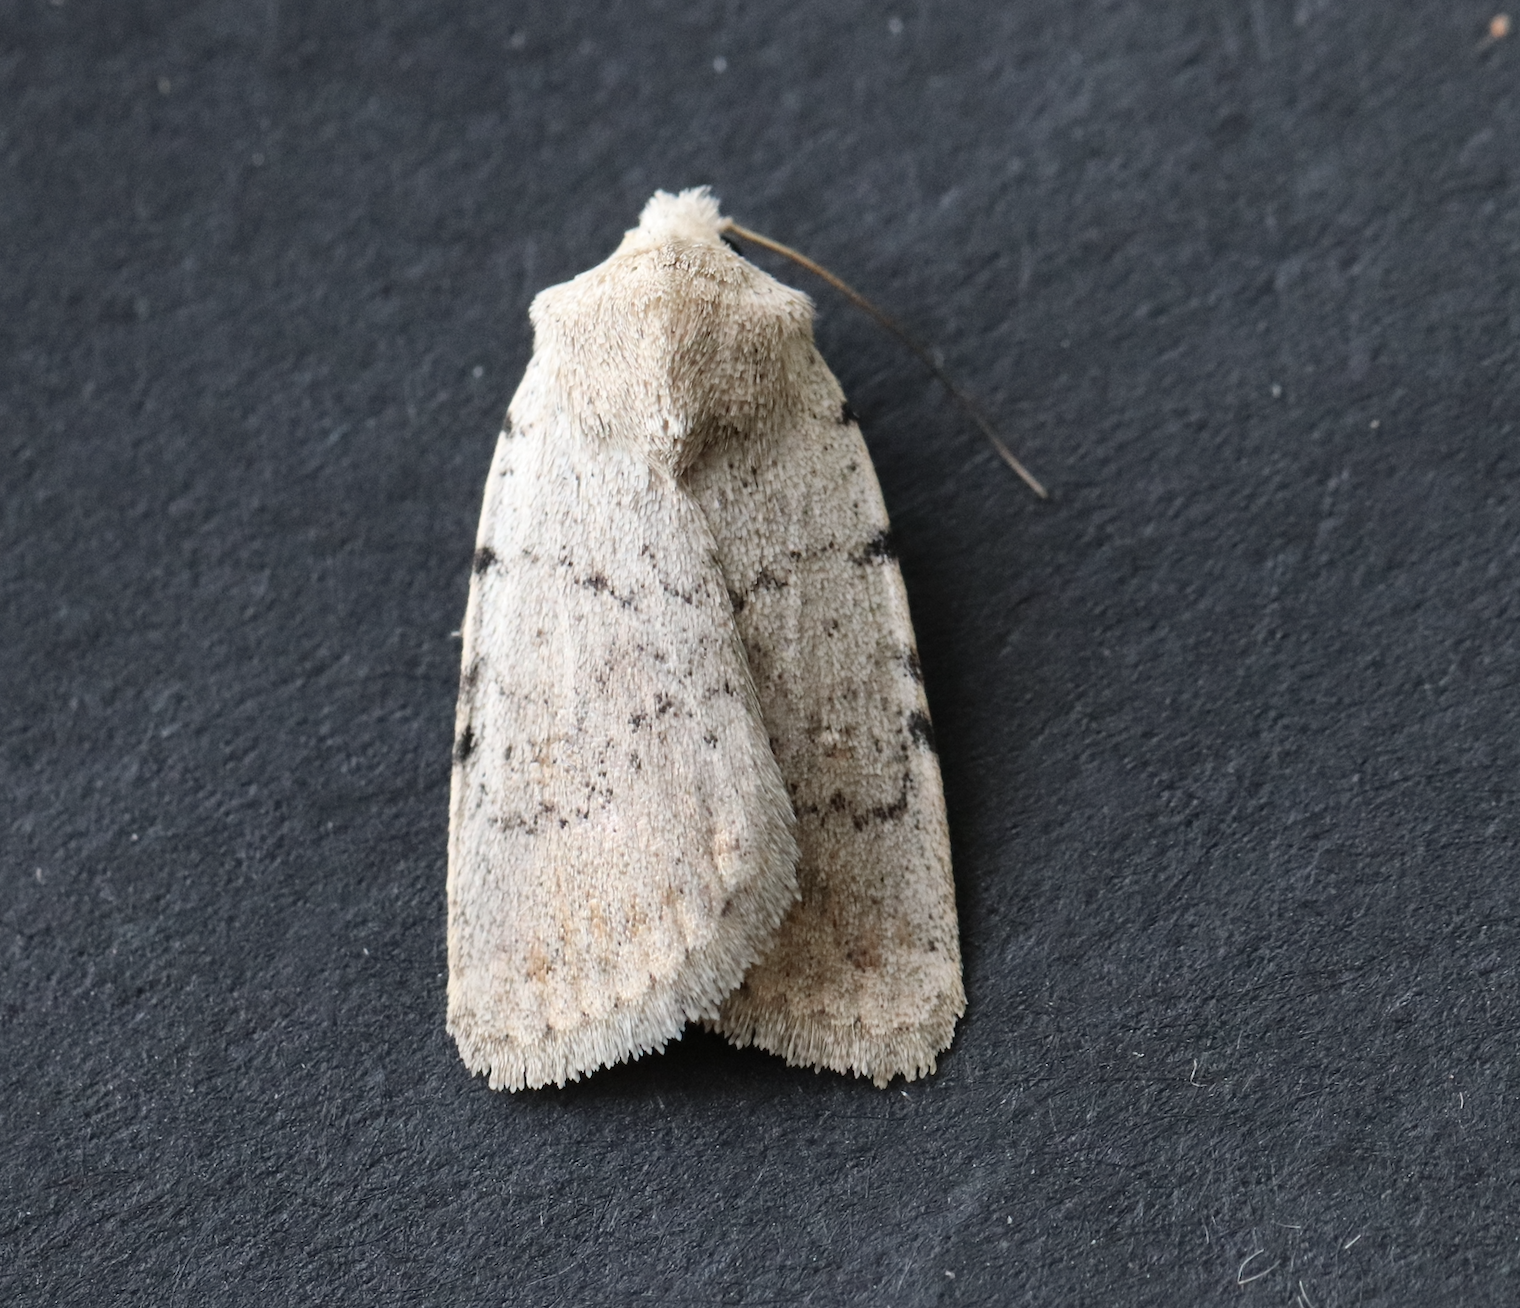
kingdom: Animalia
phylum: Arthropoda
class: Insecta
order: Lepidoptera
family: Noctuidae
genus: Caradrina
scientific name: Caradrina selini
